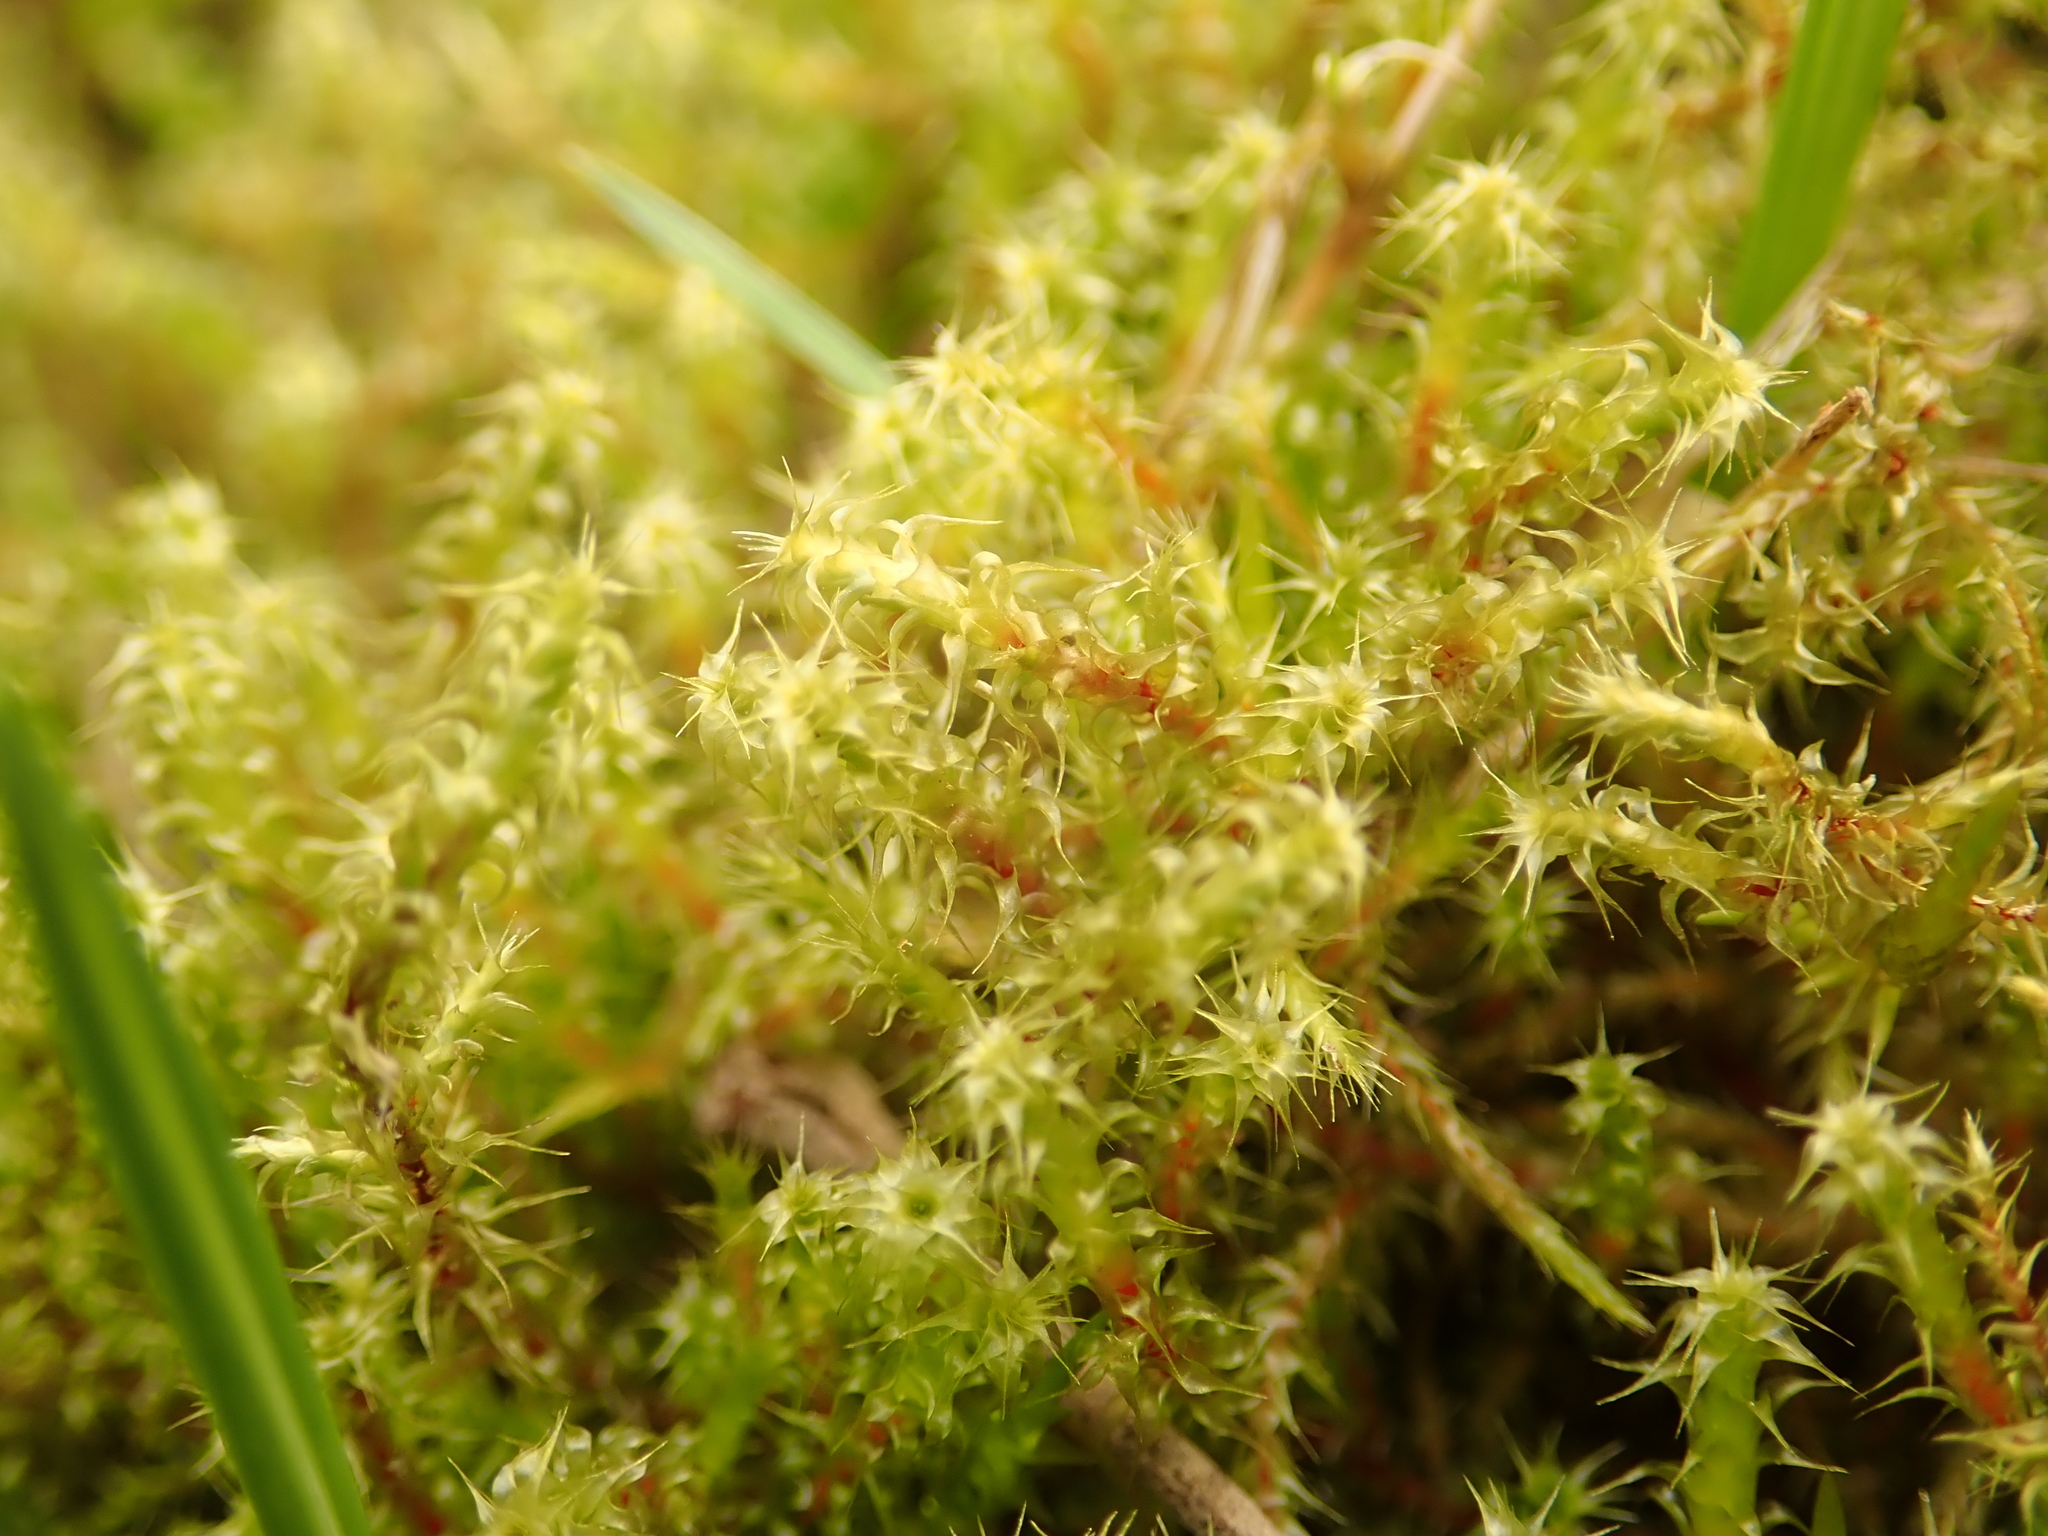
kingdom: Plantae
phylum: Bryophyta
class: Bryopsida
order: Hypnales
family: Hylocomiaceae
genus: Rhytidiadelphus
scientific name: Rhytidiadelphus squarrosus
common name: Springy turf-moss
